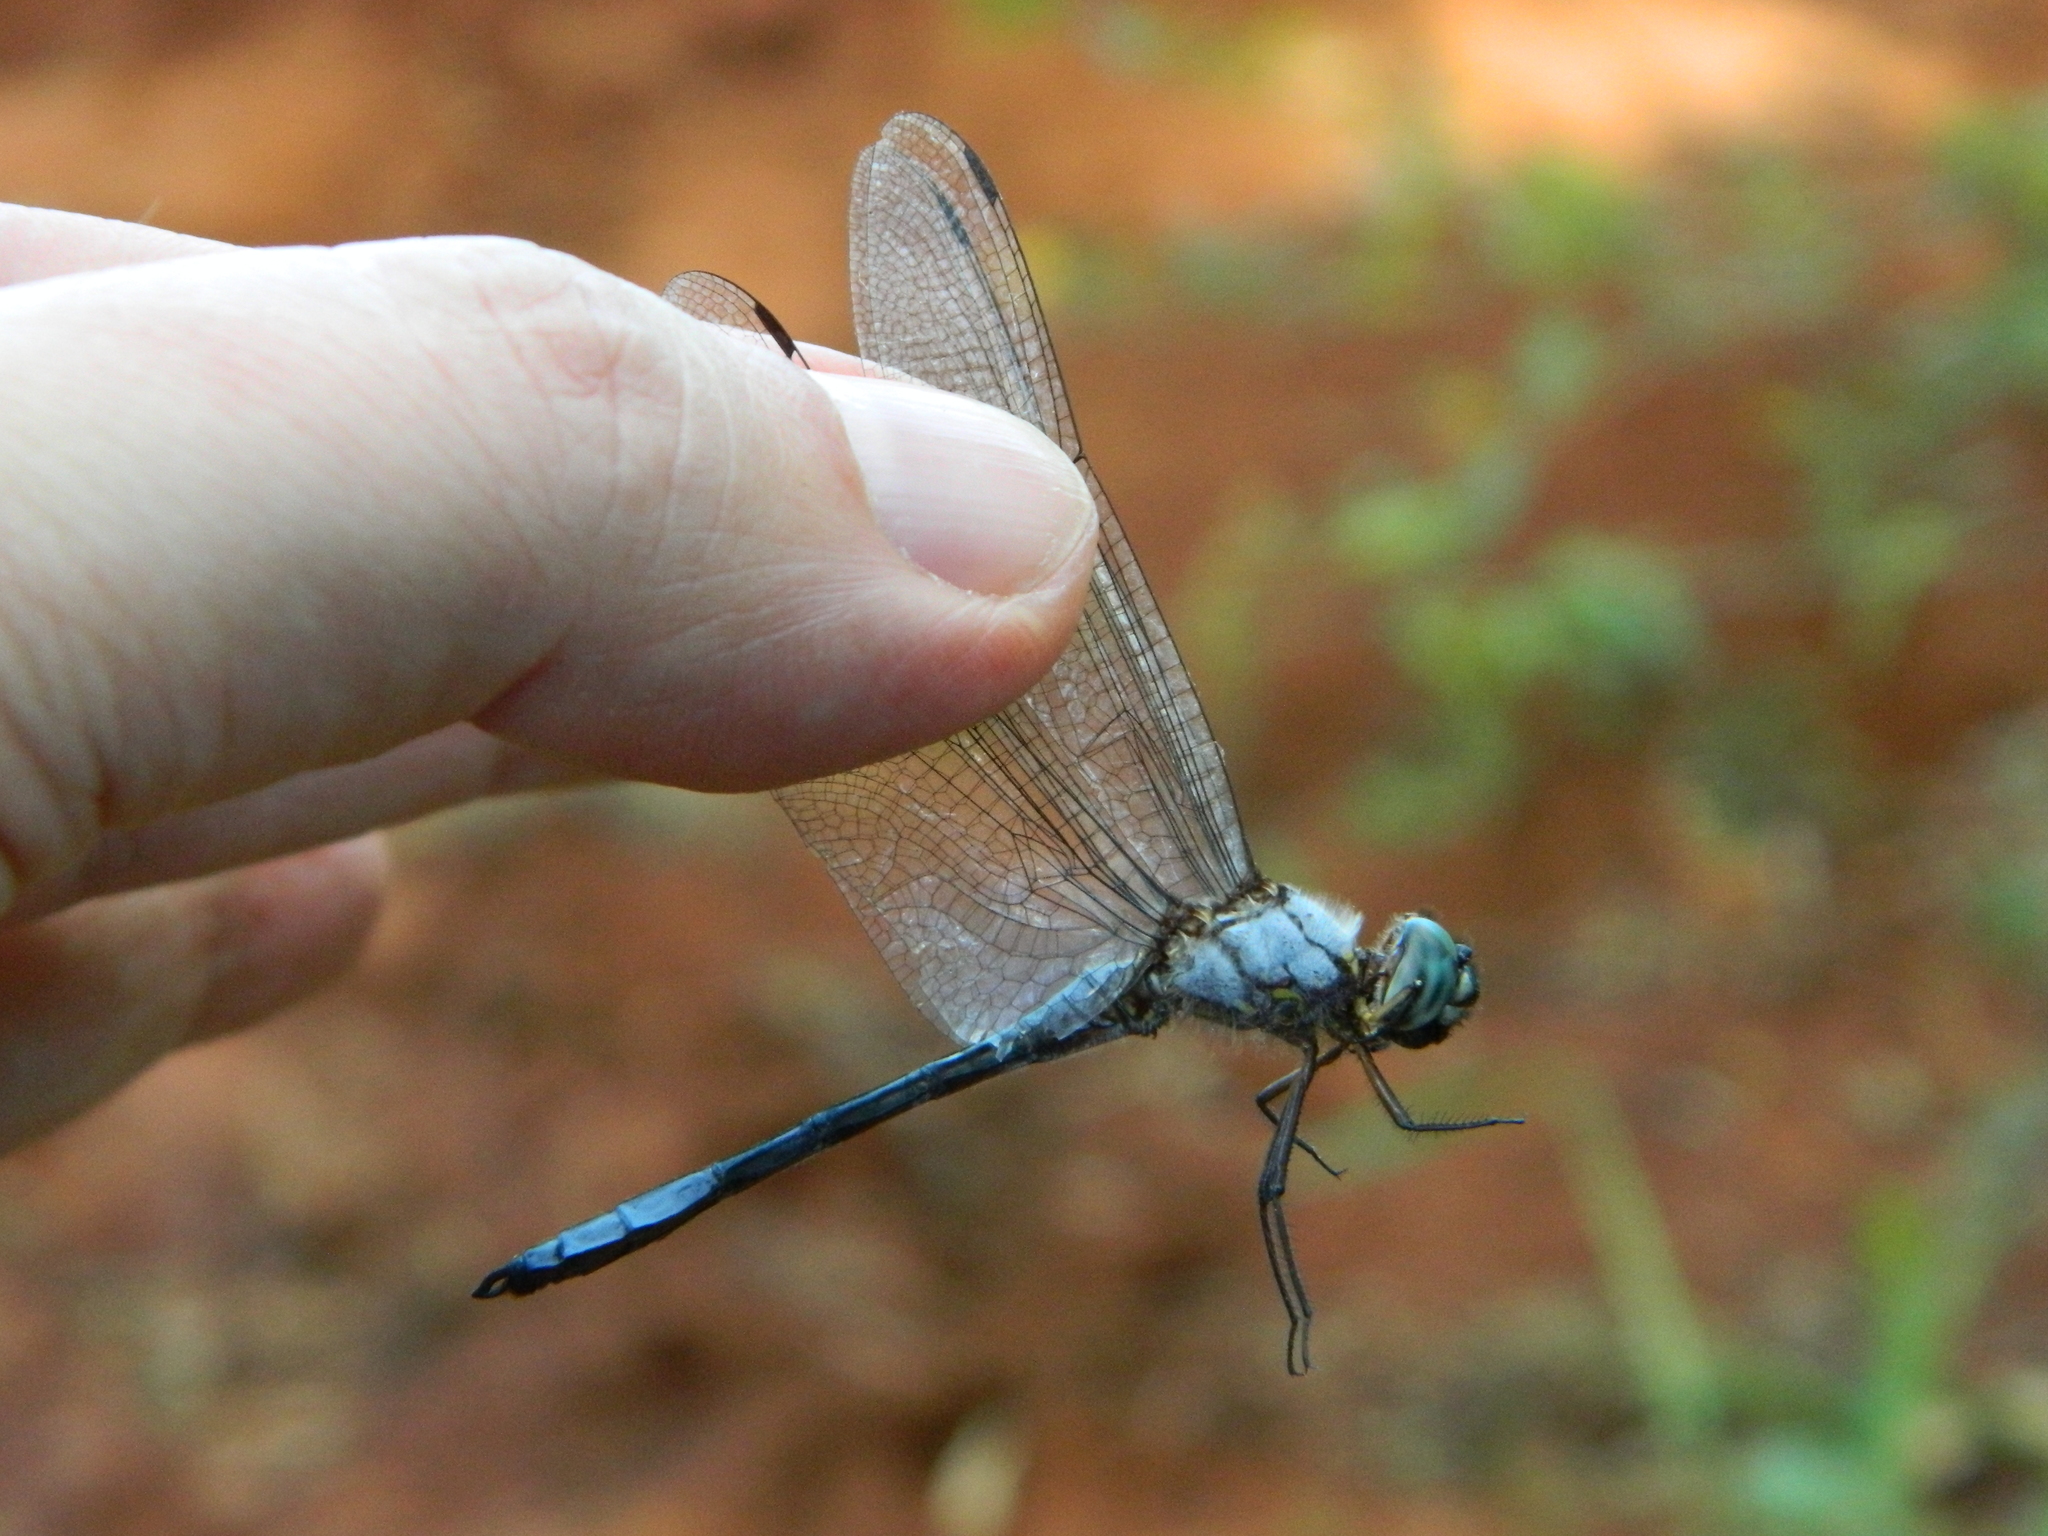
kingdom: Animalia
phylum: Arthropoda
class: Insecta
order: Odonata
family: Libellulidae
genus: Scapanea
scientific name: Scapanea frontalis
